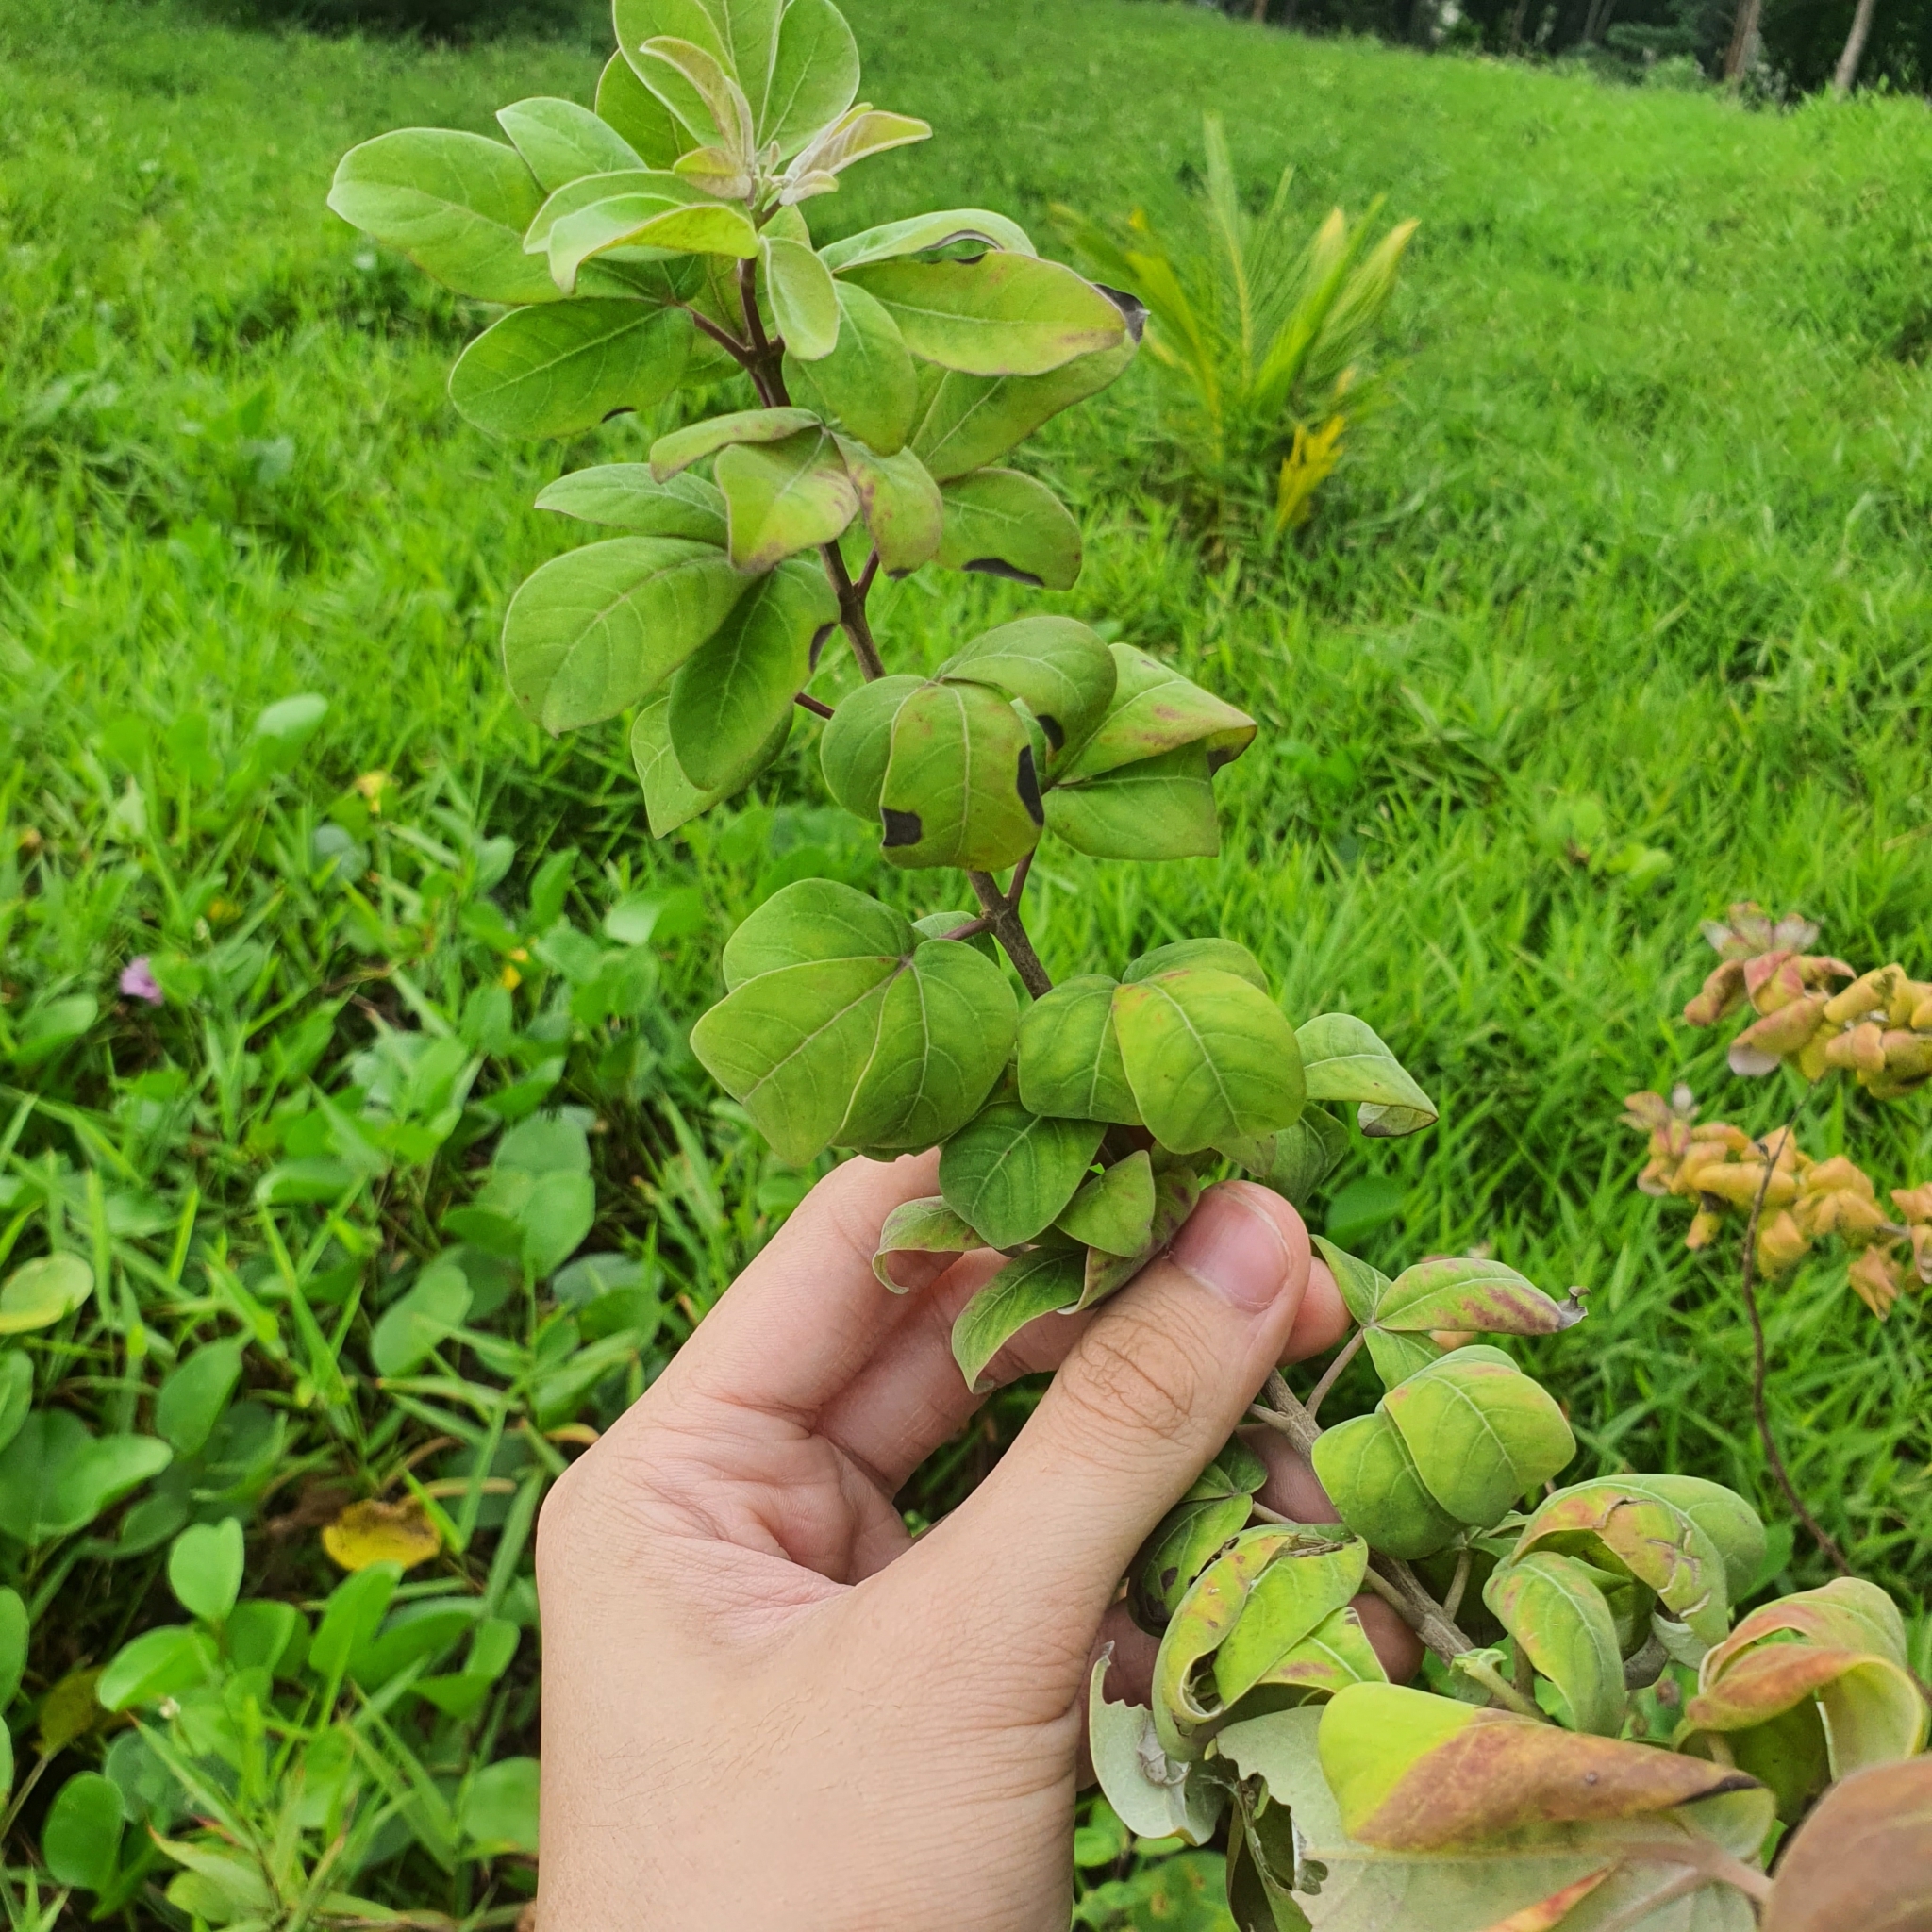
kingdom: Plantae
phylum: Tracheophyta
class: Magnoliopsida
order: Lamiales
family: Lamiaceae
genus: Vitex
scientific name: Vitex trifolia
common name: Simpleleaf chastetree
